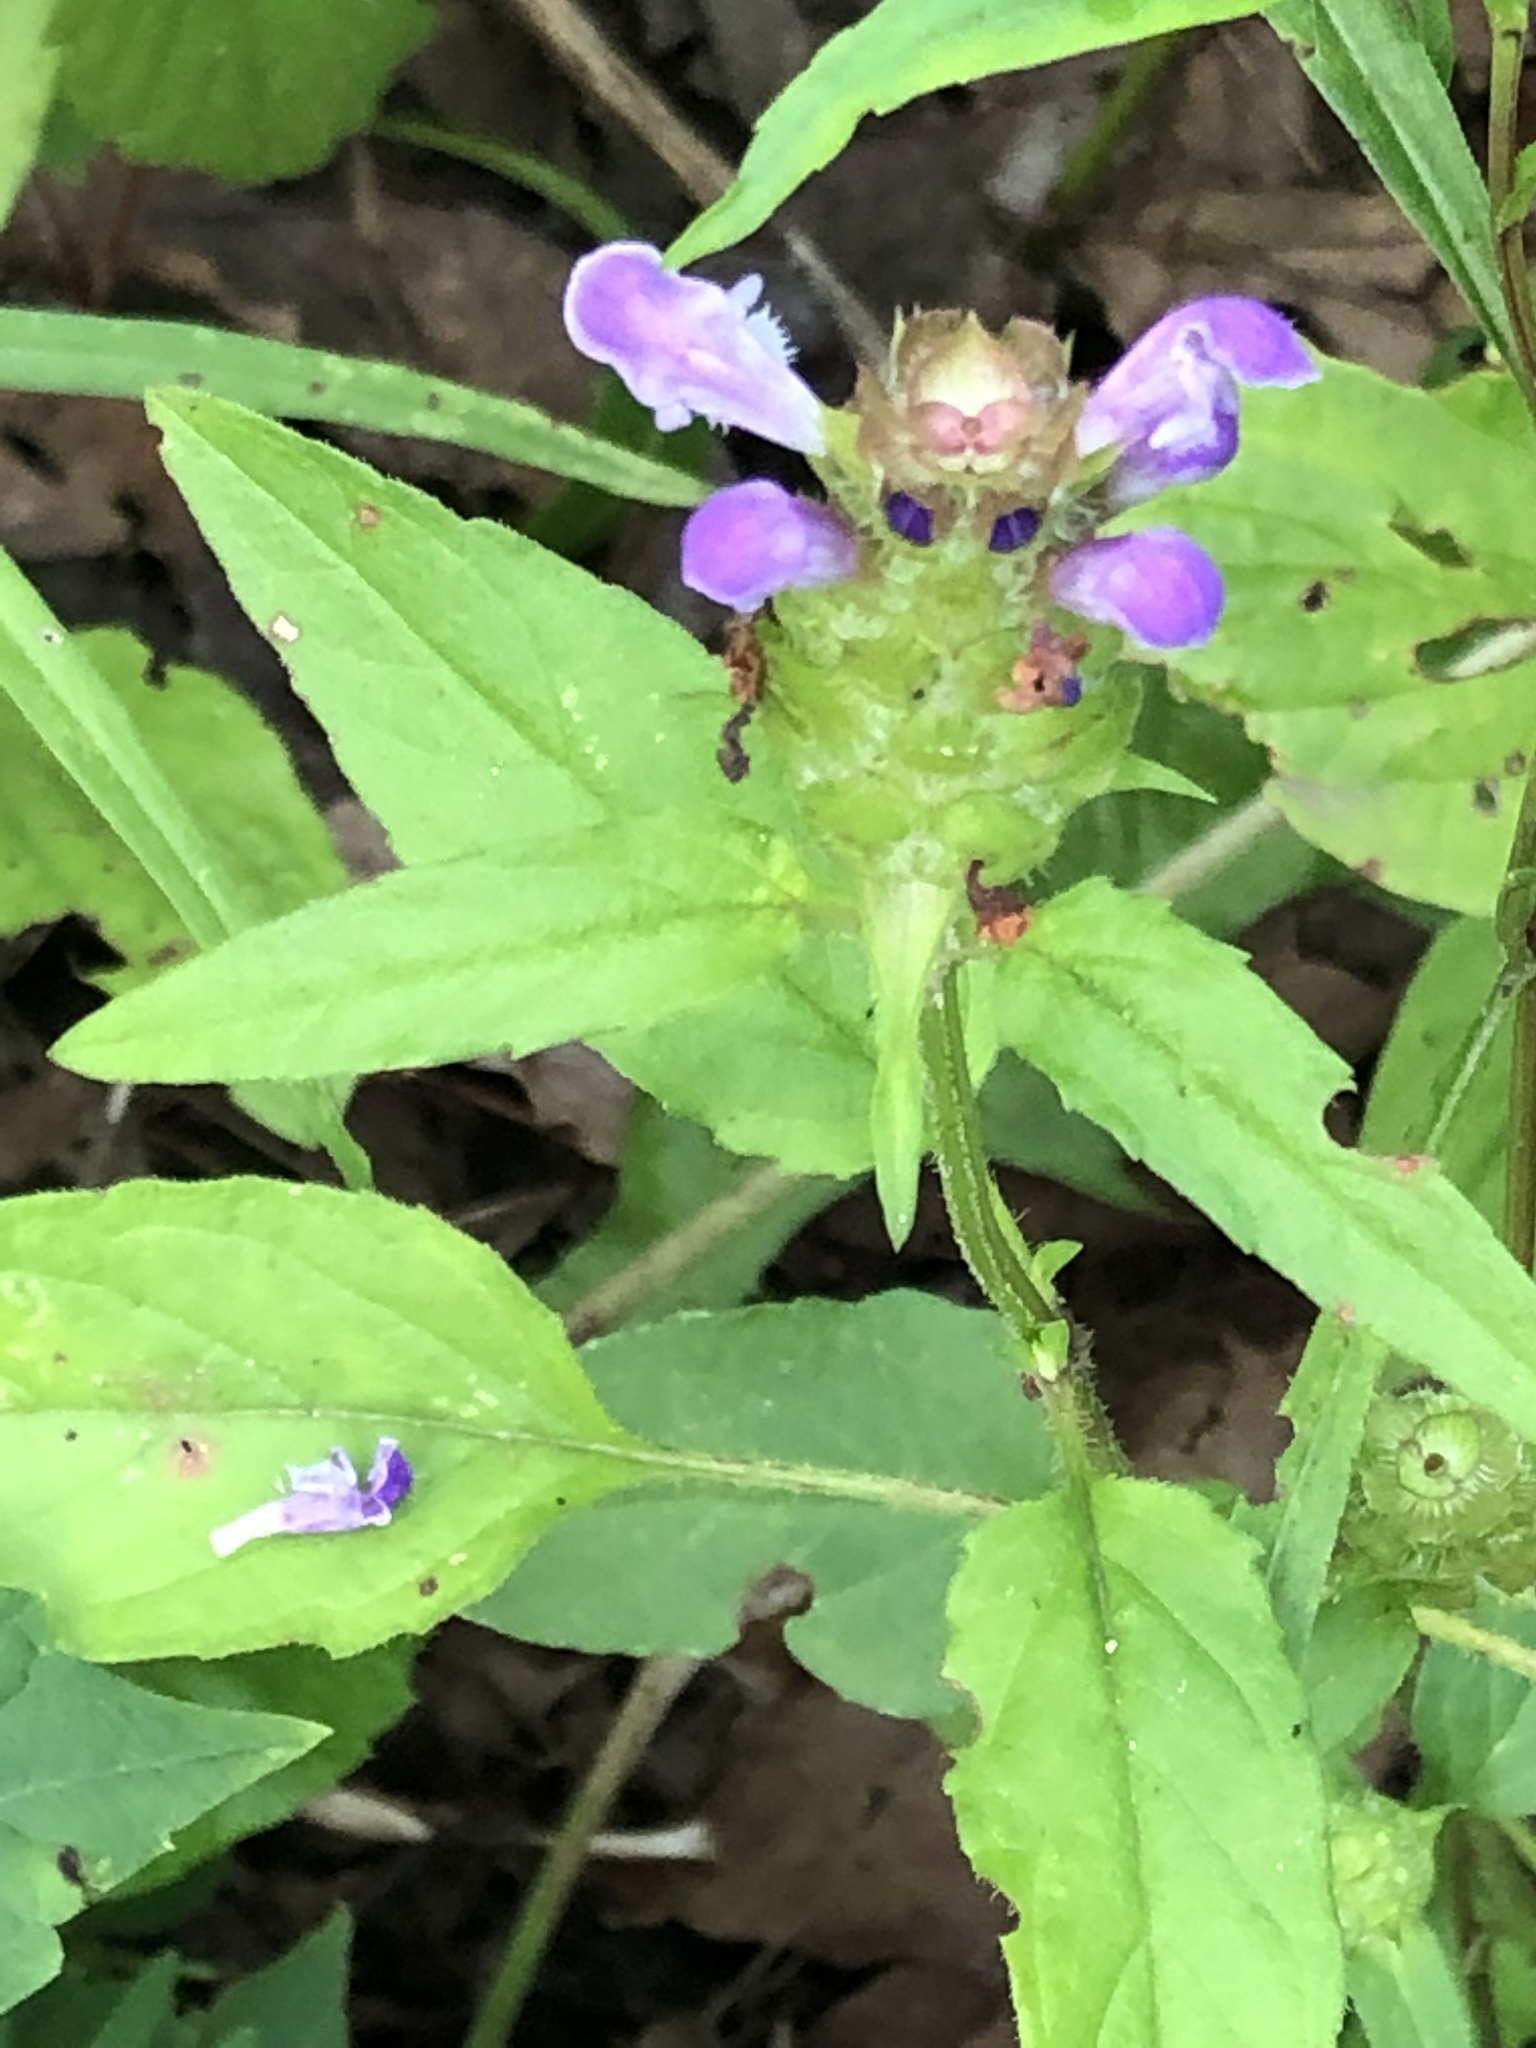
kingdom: Plantae
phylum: Tracheophyta
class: Magnoliopsida
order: Lamiales
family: Lamiaceae
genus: Prunella
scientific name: Prunella vulgaris
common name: Heal-all
